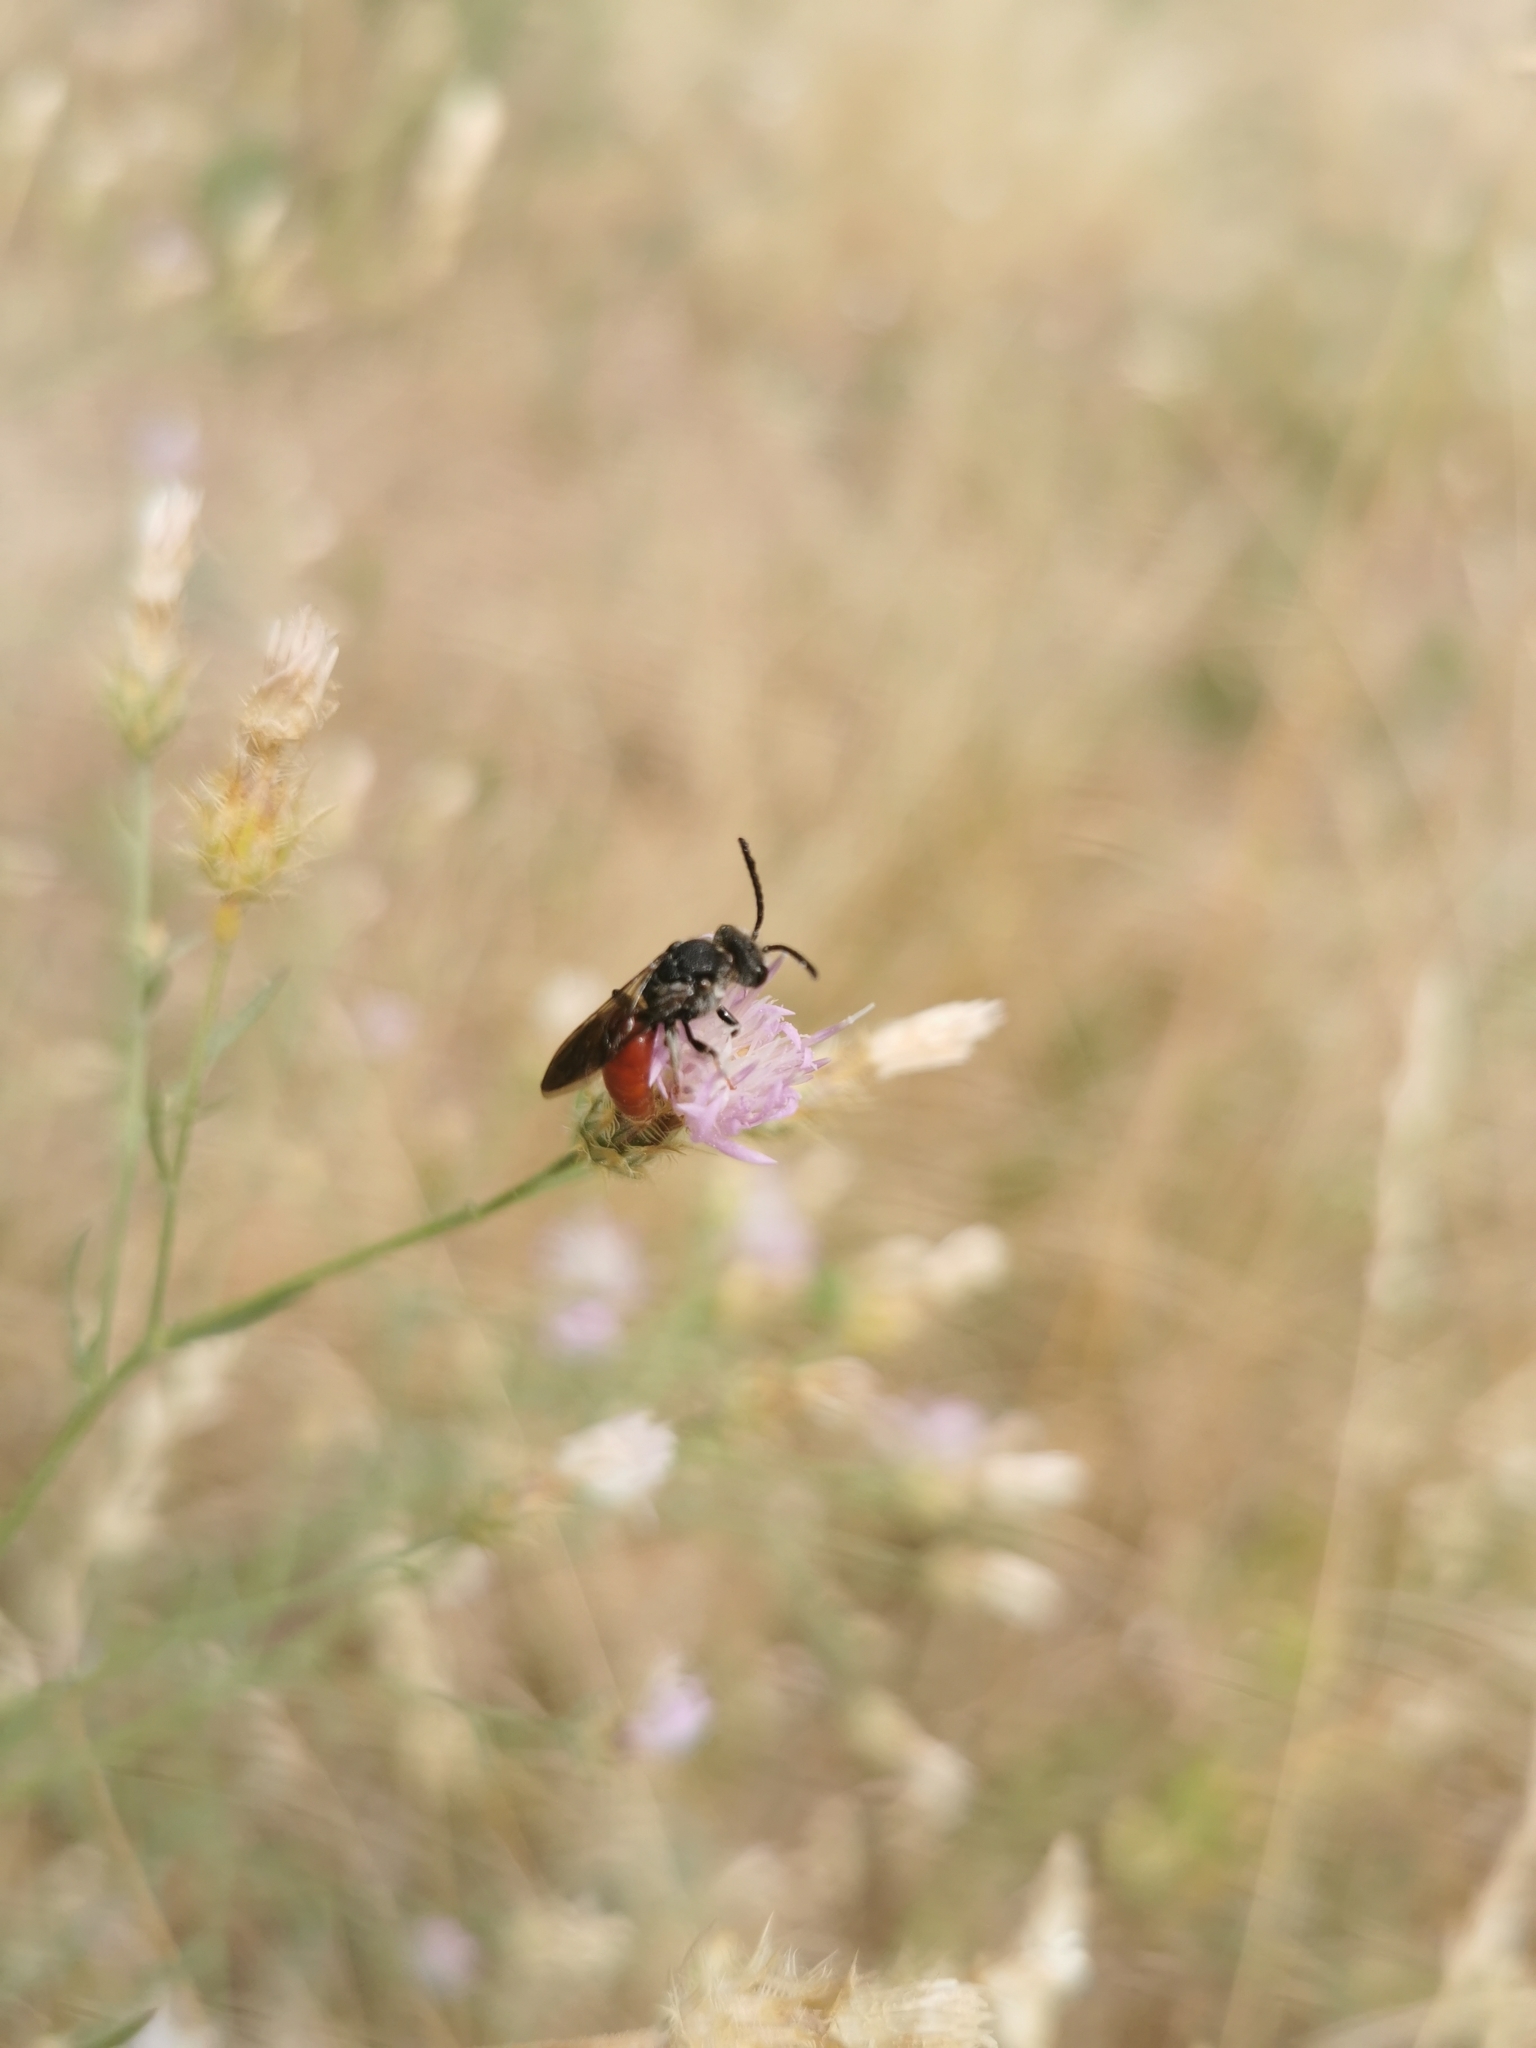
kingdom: Animalia
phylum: Arthropoda
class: Insecta
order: Hymenoptera
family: Halictidae
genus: Sphecodes
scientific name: Sphecodes albilabris
